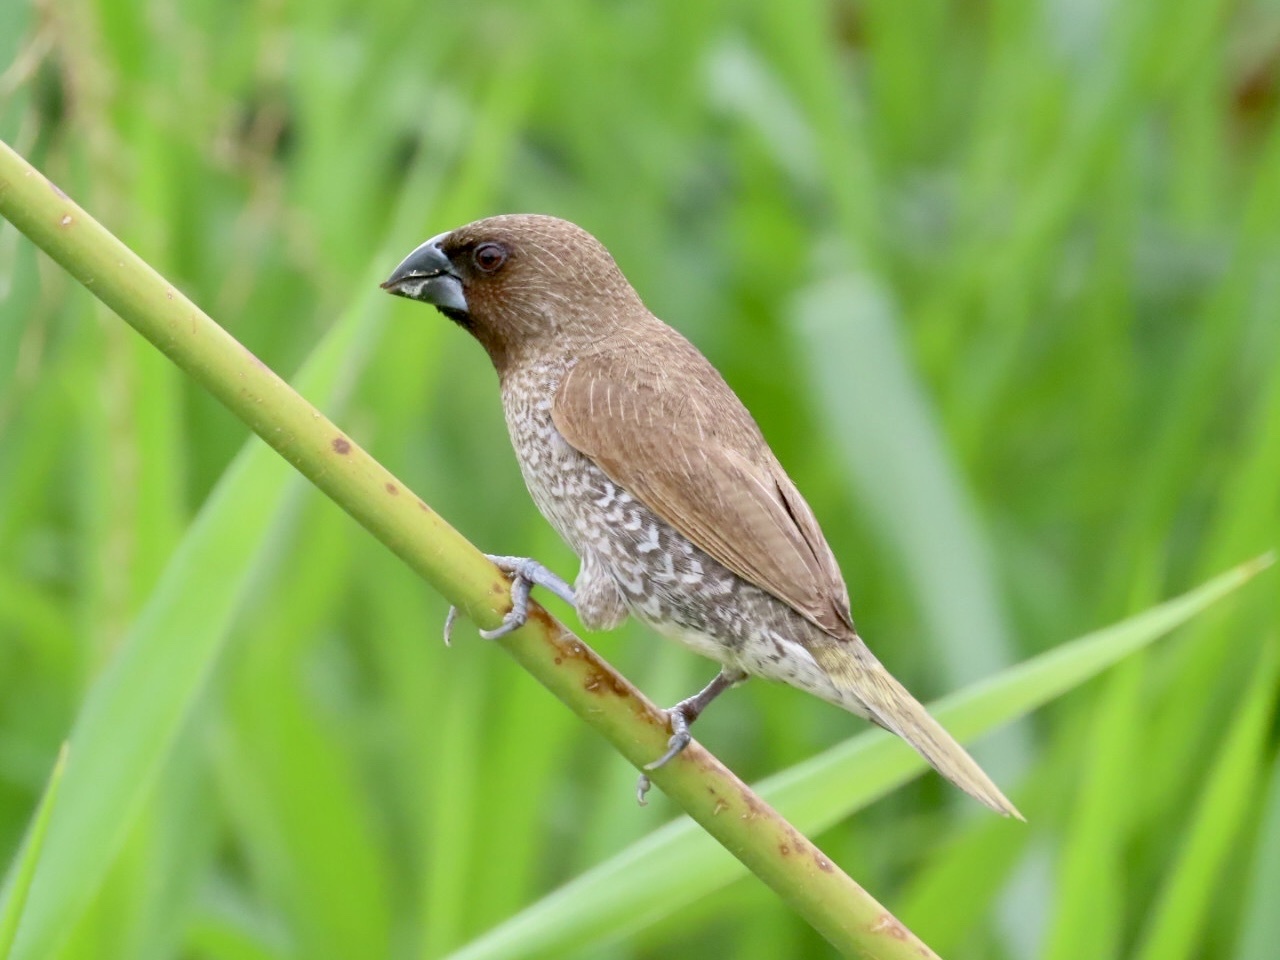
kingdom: Animalia
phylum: Chordata
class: Aves
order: Passeriformes
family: Estrildidae
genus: Lonchura
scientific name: Lonchura punctulata
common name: Scaly-breasted munia
